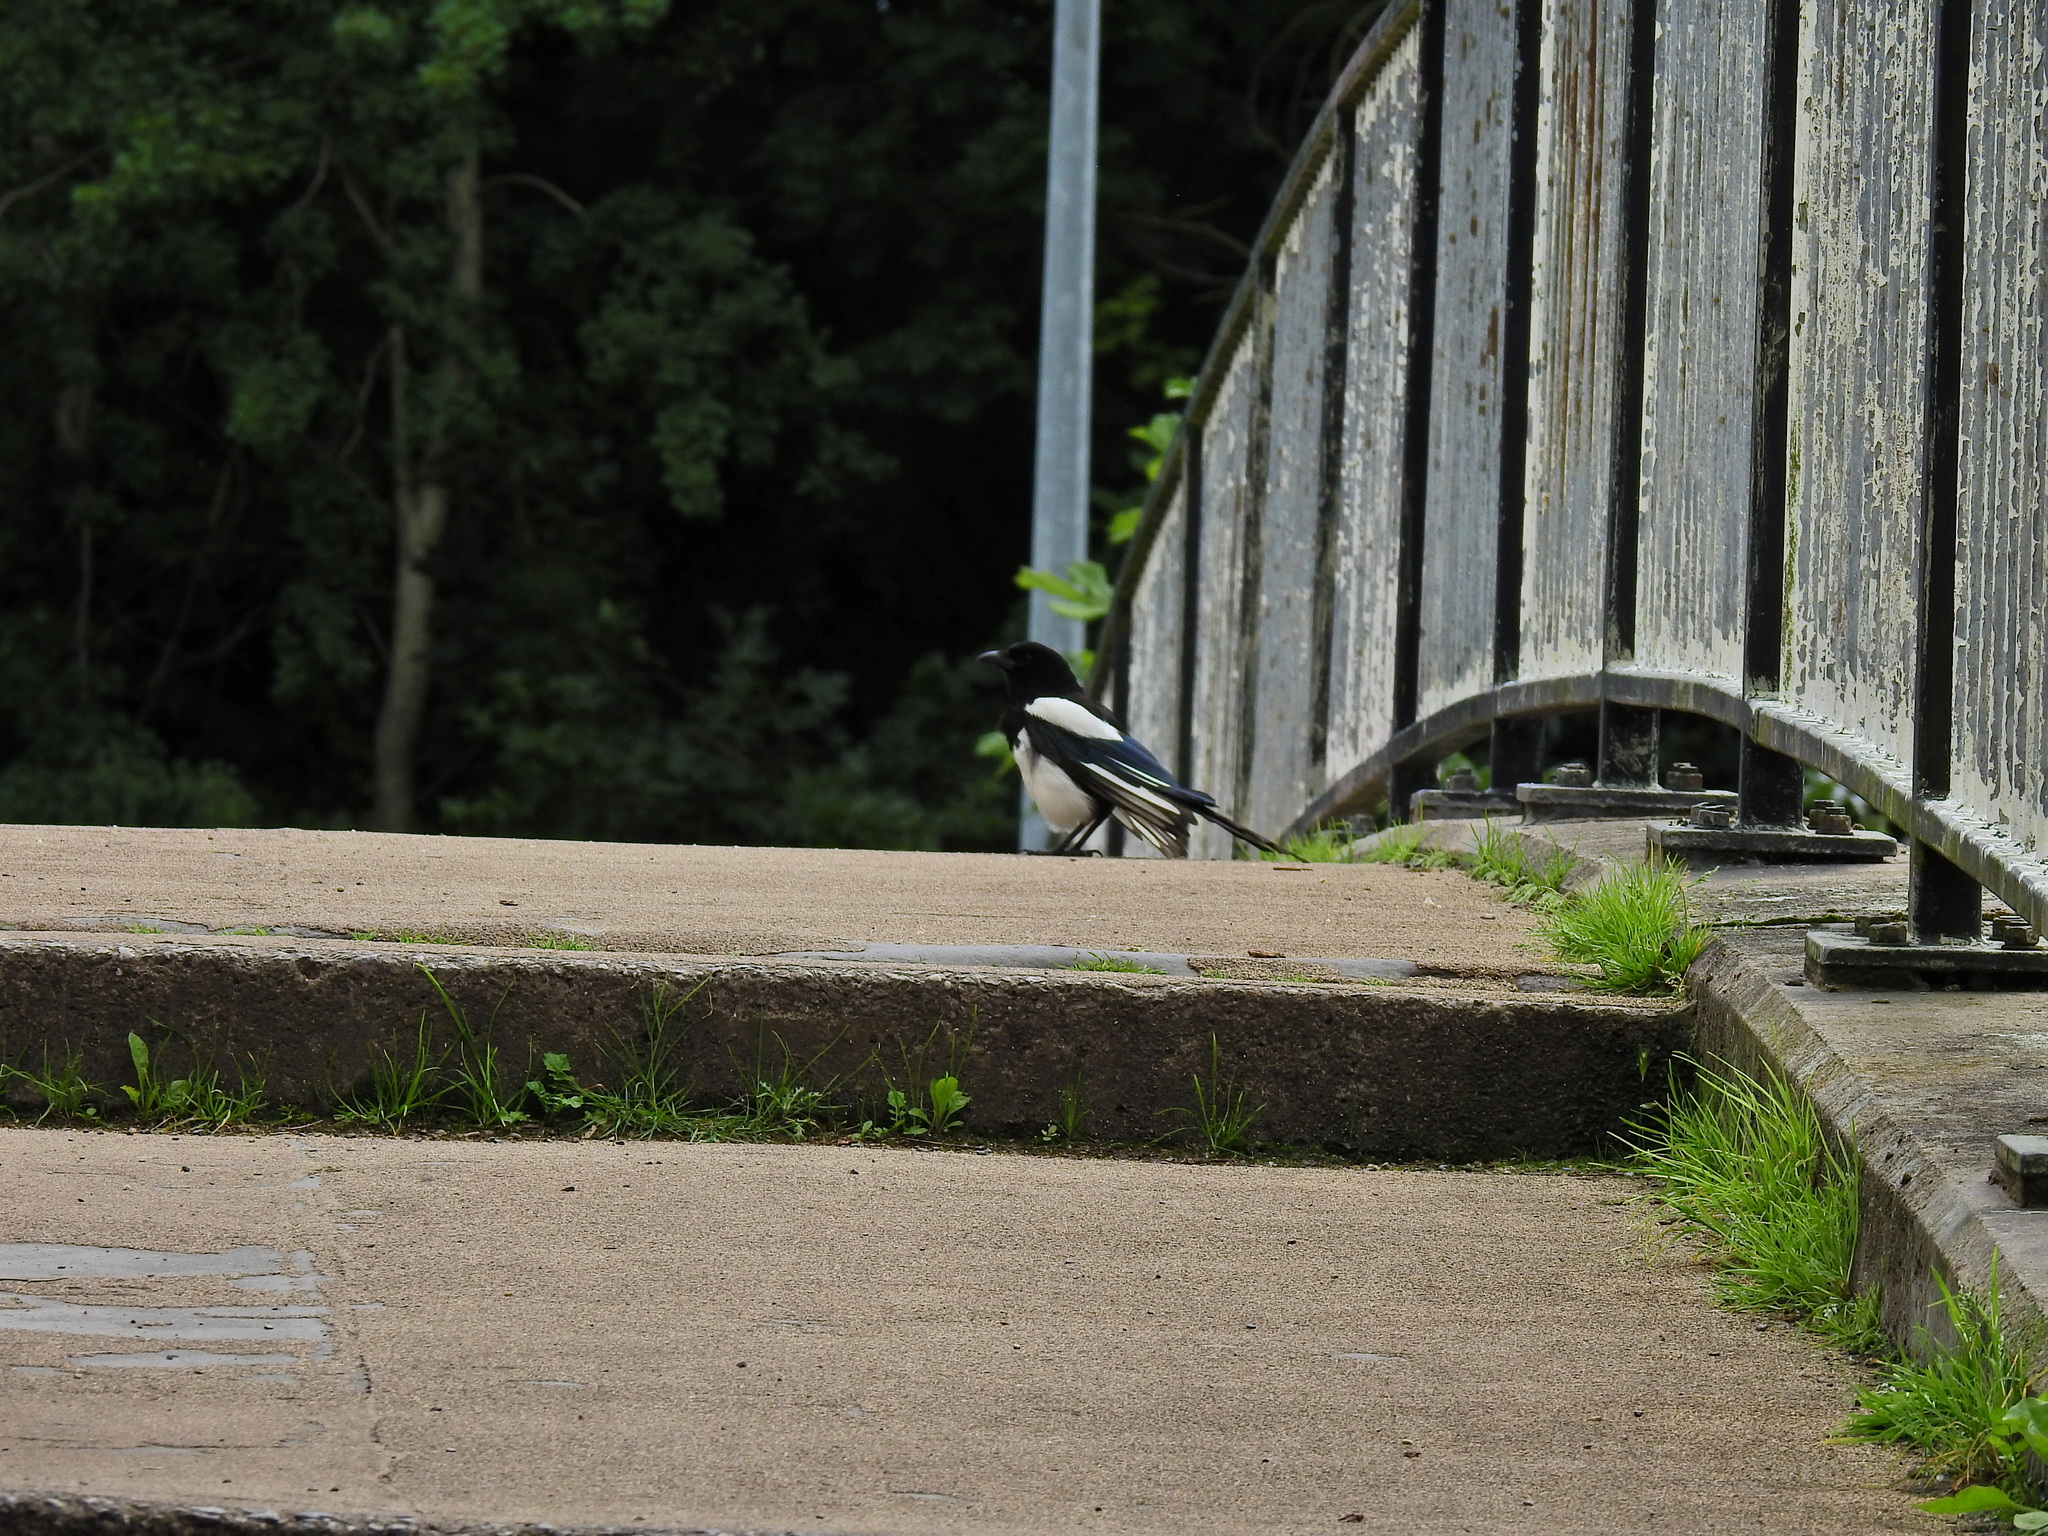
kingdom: Animalia
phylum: Chordata
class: Aves
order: Passeriformes
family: Corvidae
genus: Pica
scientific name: Pica pica
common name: Eurasian magpie
